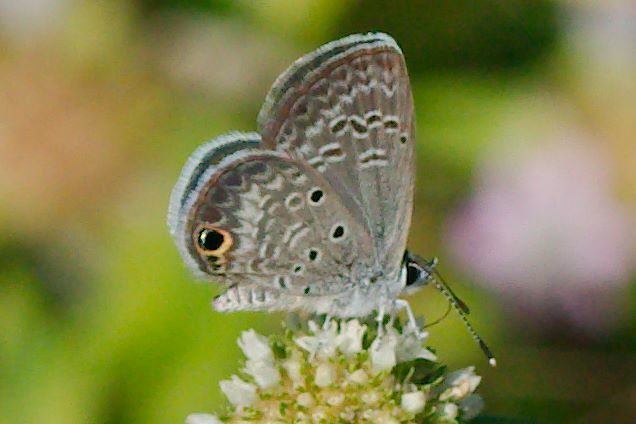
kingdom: Animalia
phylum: Arthropoda
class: Insecta
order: Lepidoptera
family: Lycaenidae
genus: Hemiargus
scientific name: Hemiargus ceraunus
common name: Ceraunus blue
